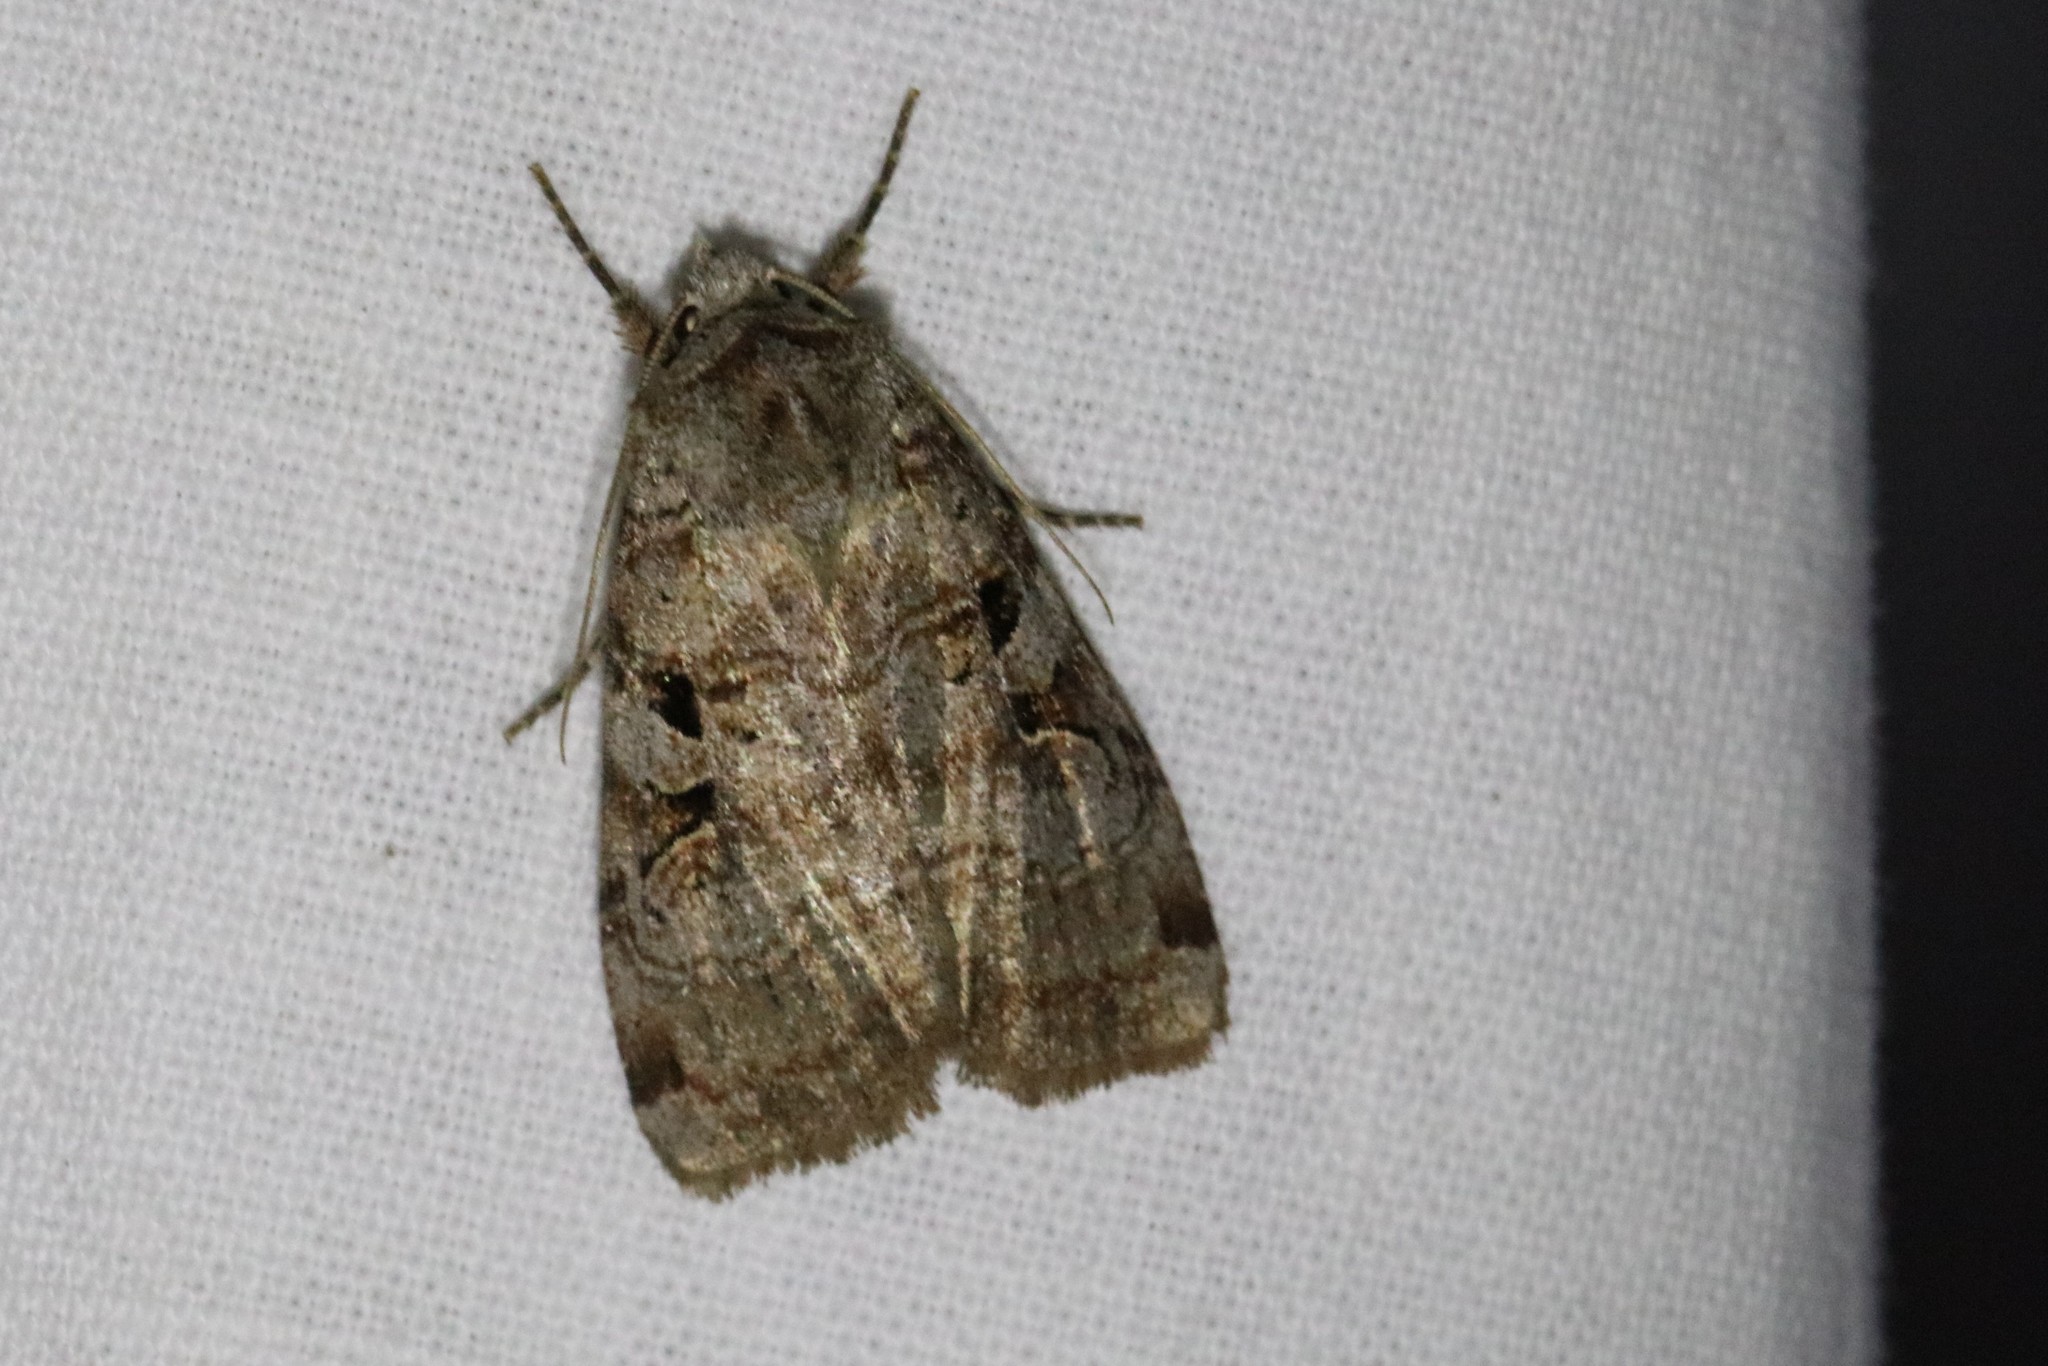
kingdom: Animalia
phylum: Arthropoda
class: Insecta
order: Lepidoptera
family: Noctuidae
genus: Xestia
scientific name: Xestia normaniana
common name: Norman's dart moth
